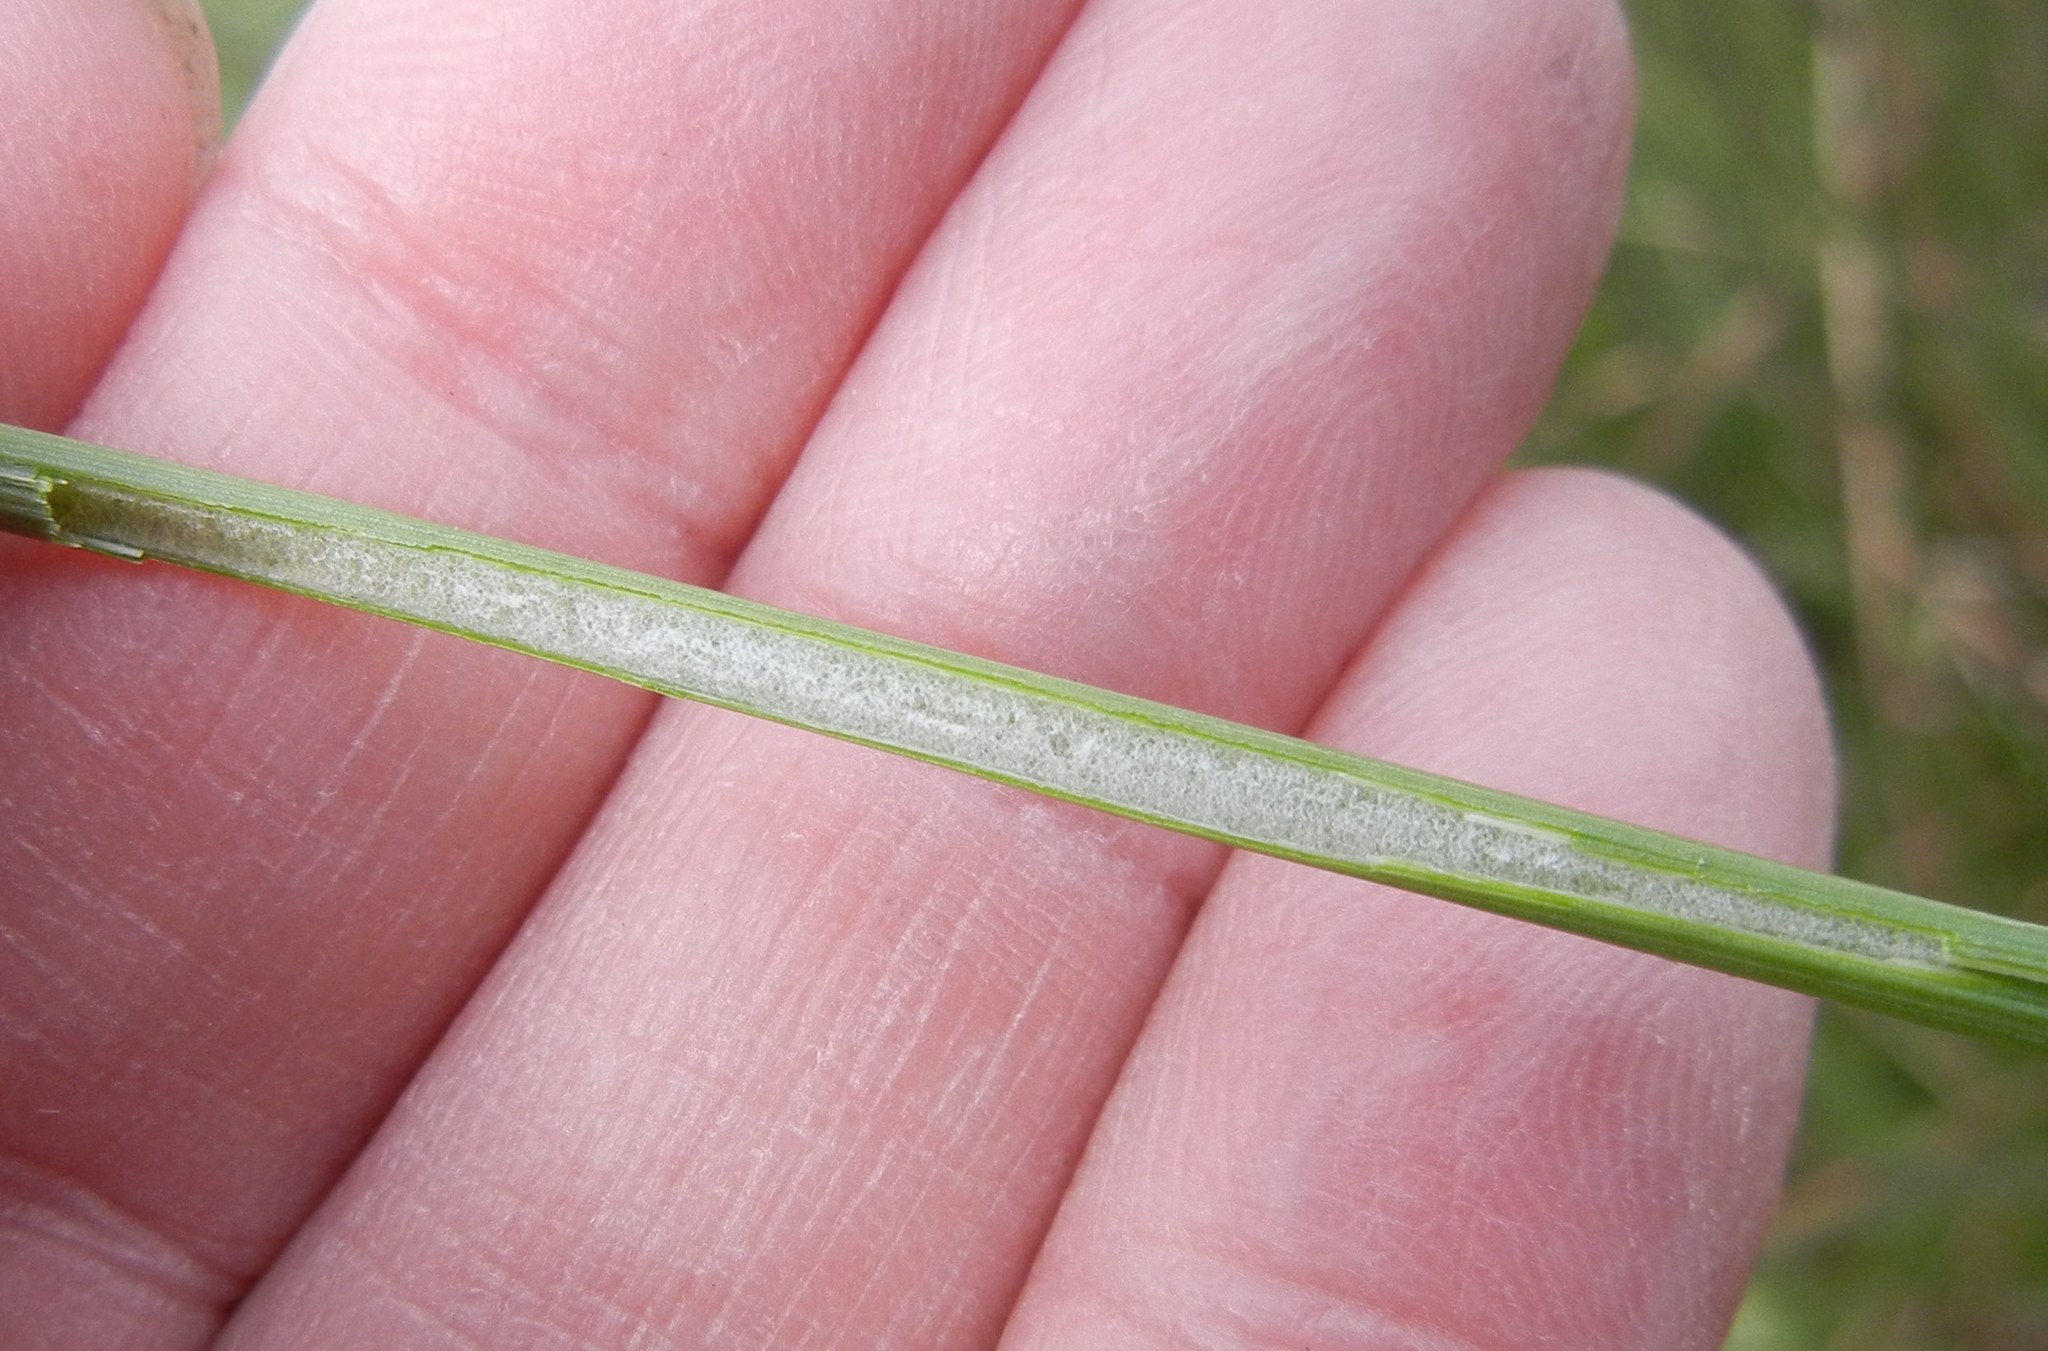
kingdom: Plantae
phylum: Tracheophyta
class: Liliopsida
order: Poales
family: Juncaceae
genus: Juncus
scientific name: Juncus effusus
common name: Soft rush
